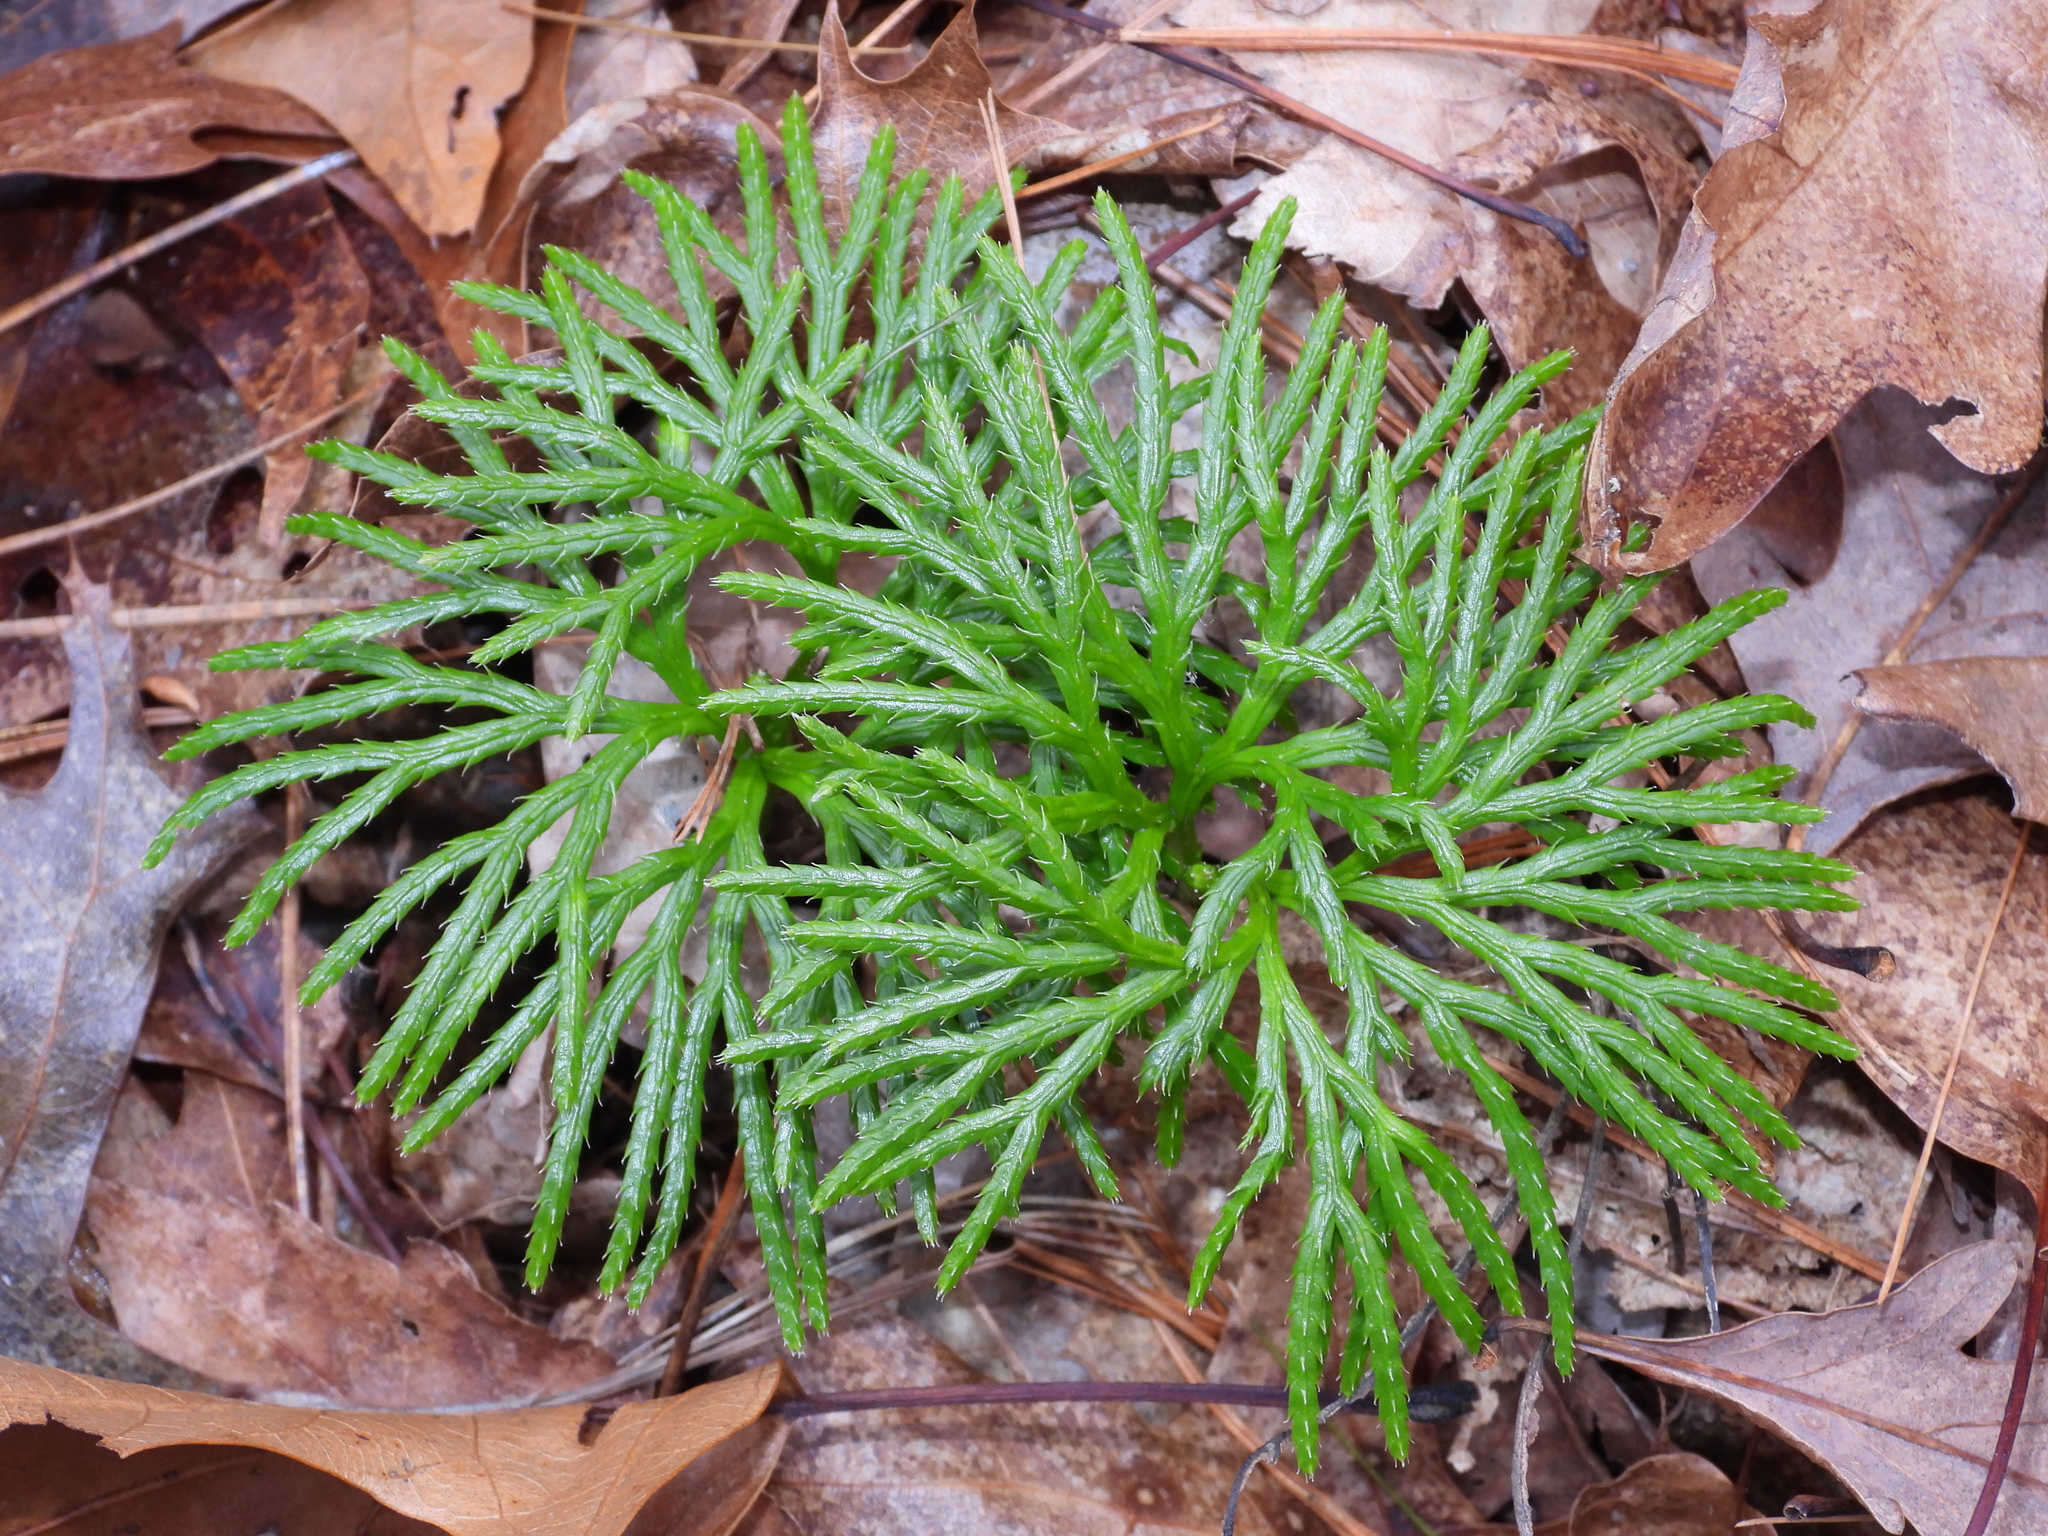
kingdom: Plantae
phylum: Tracheophyta
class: Lycopodiopsida
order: Lycopodiales
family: Lycopodiaceae
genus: Diphasiastrum
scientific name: Diphasiastrum digitatum
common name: Southern running-pine
